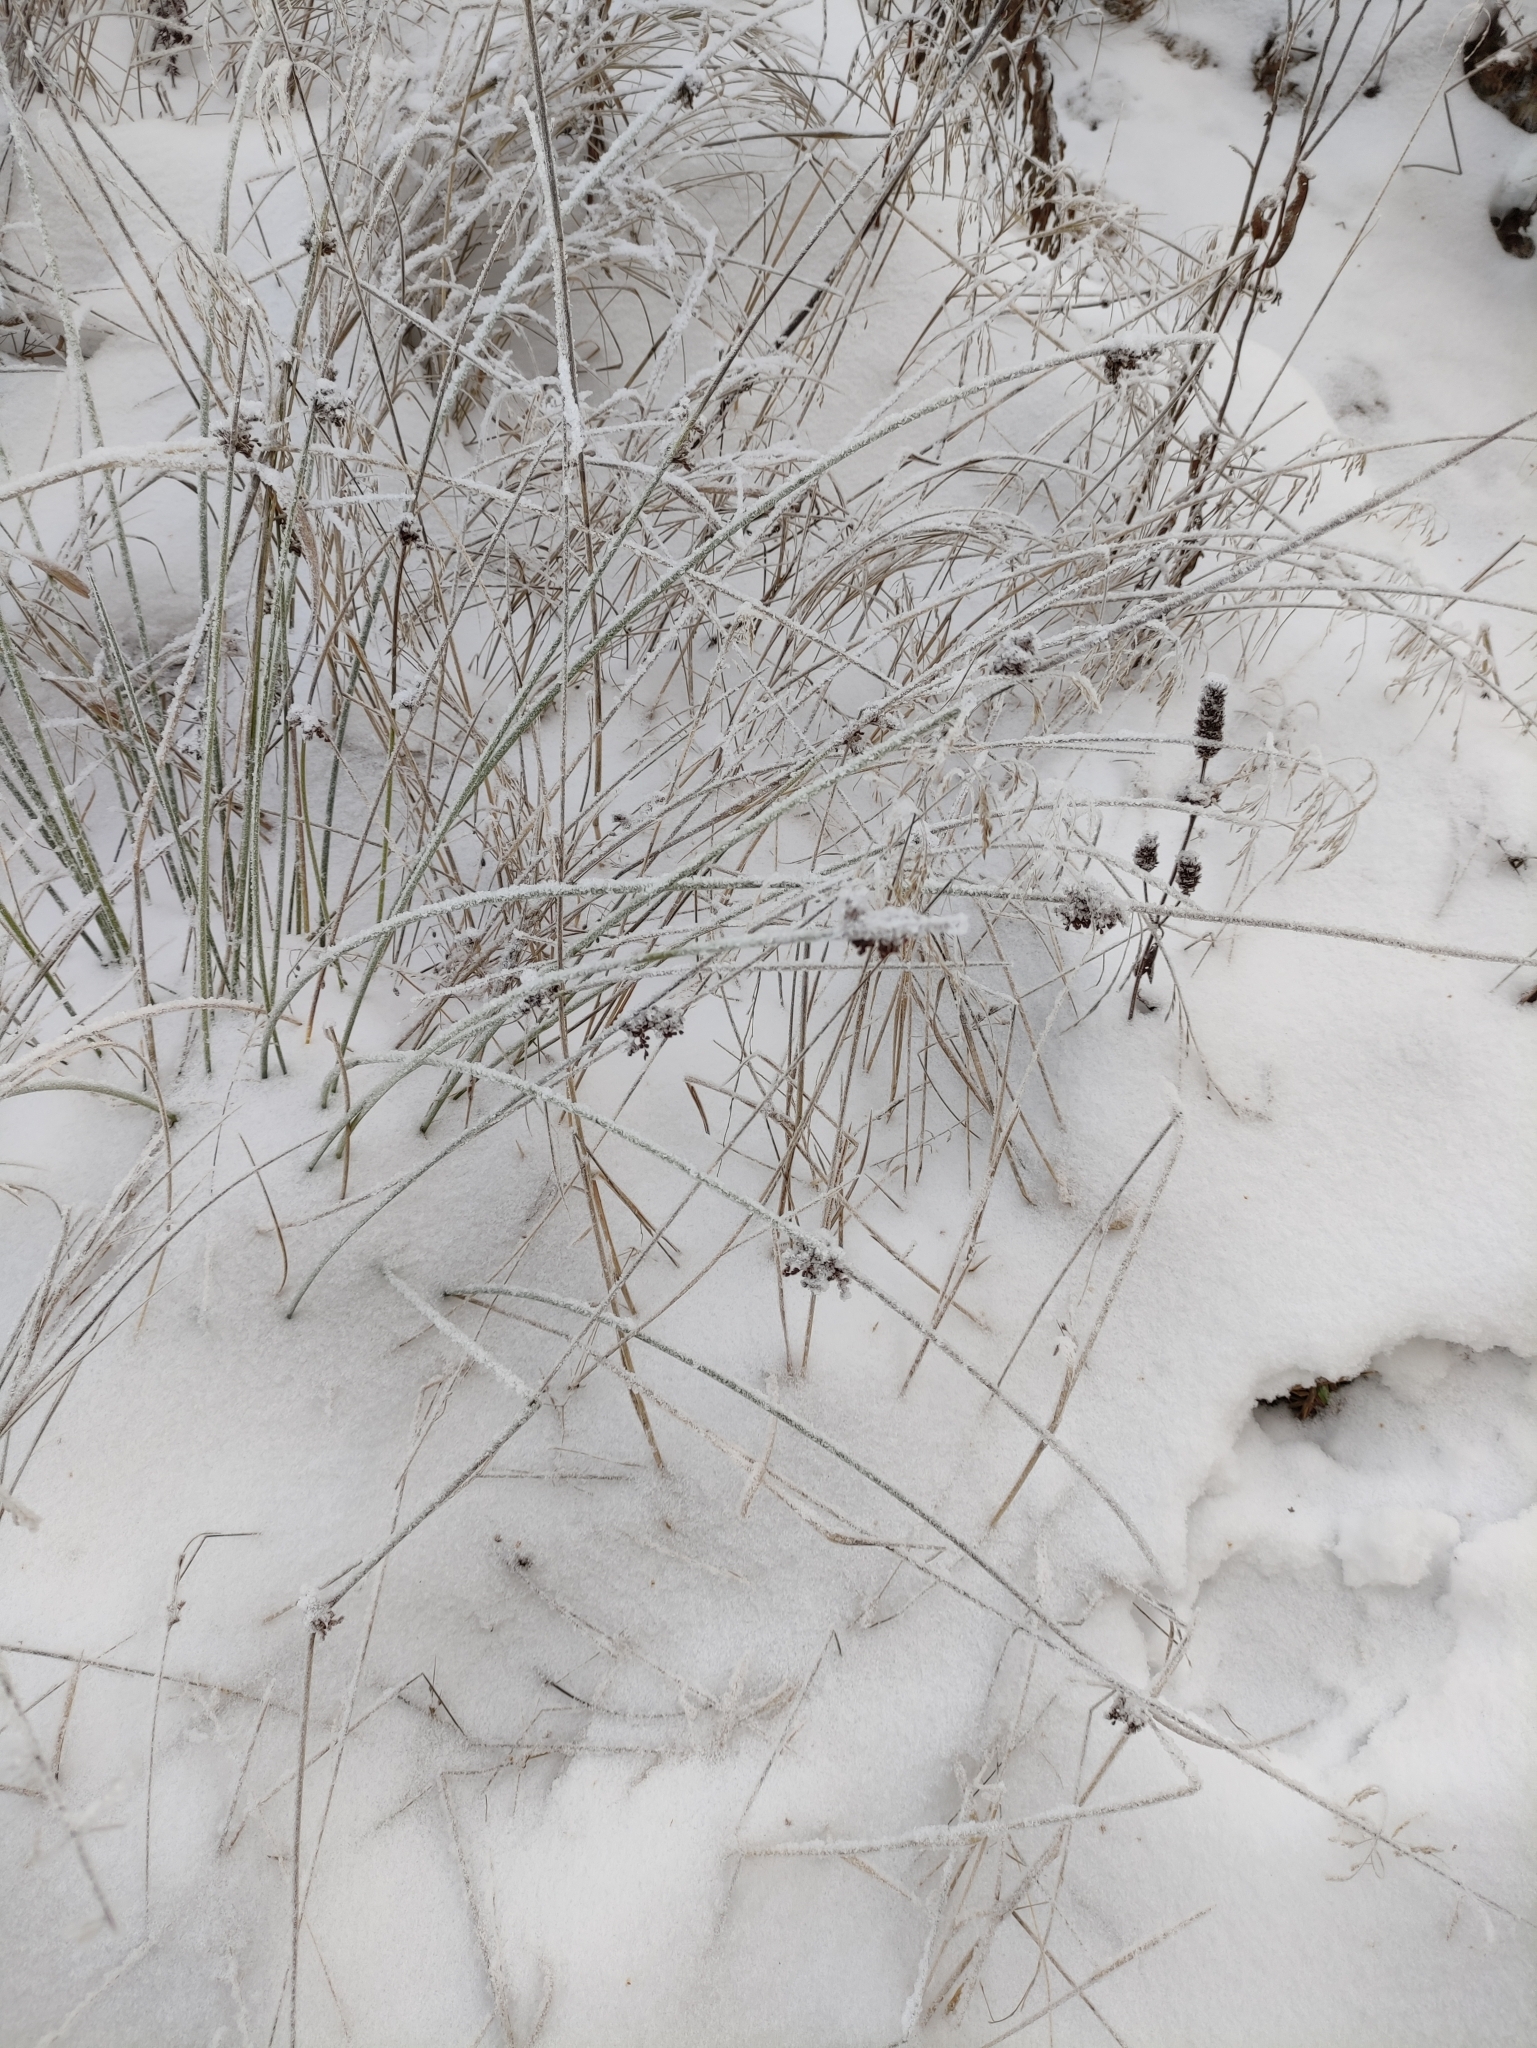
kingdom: Plantae
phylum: Tracheophyta
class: Liliopsida
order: Poales
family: Juncaceae
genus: Juncus
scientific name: Juncus effusus
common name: Soft rush
